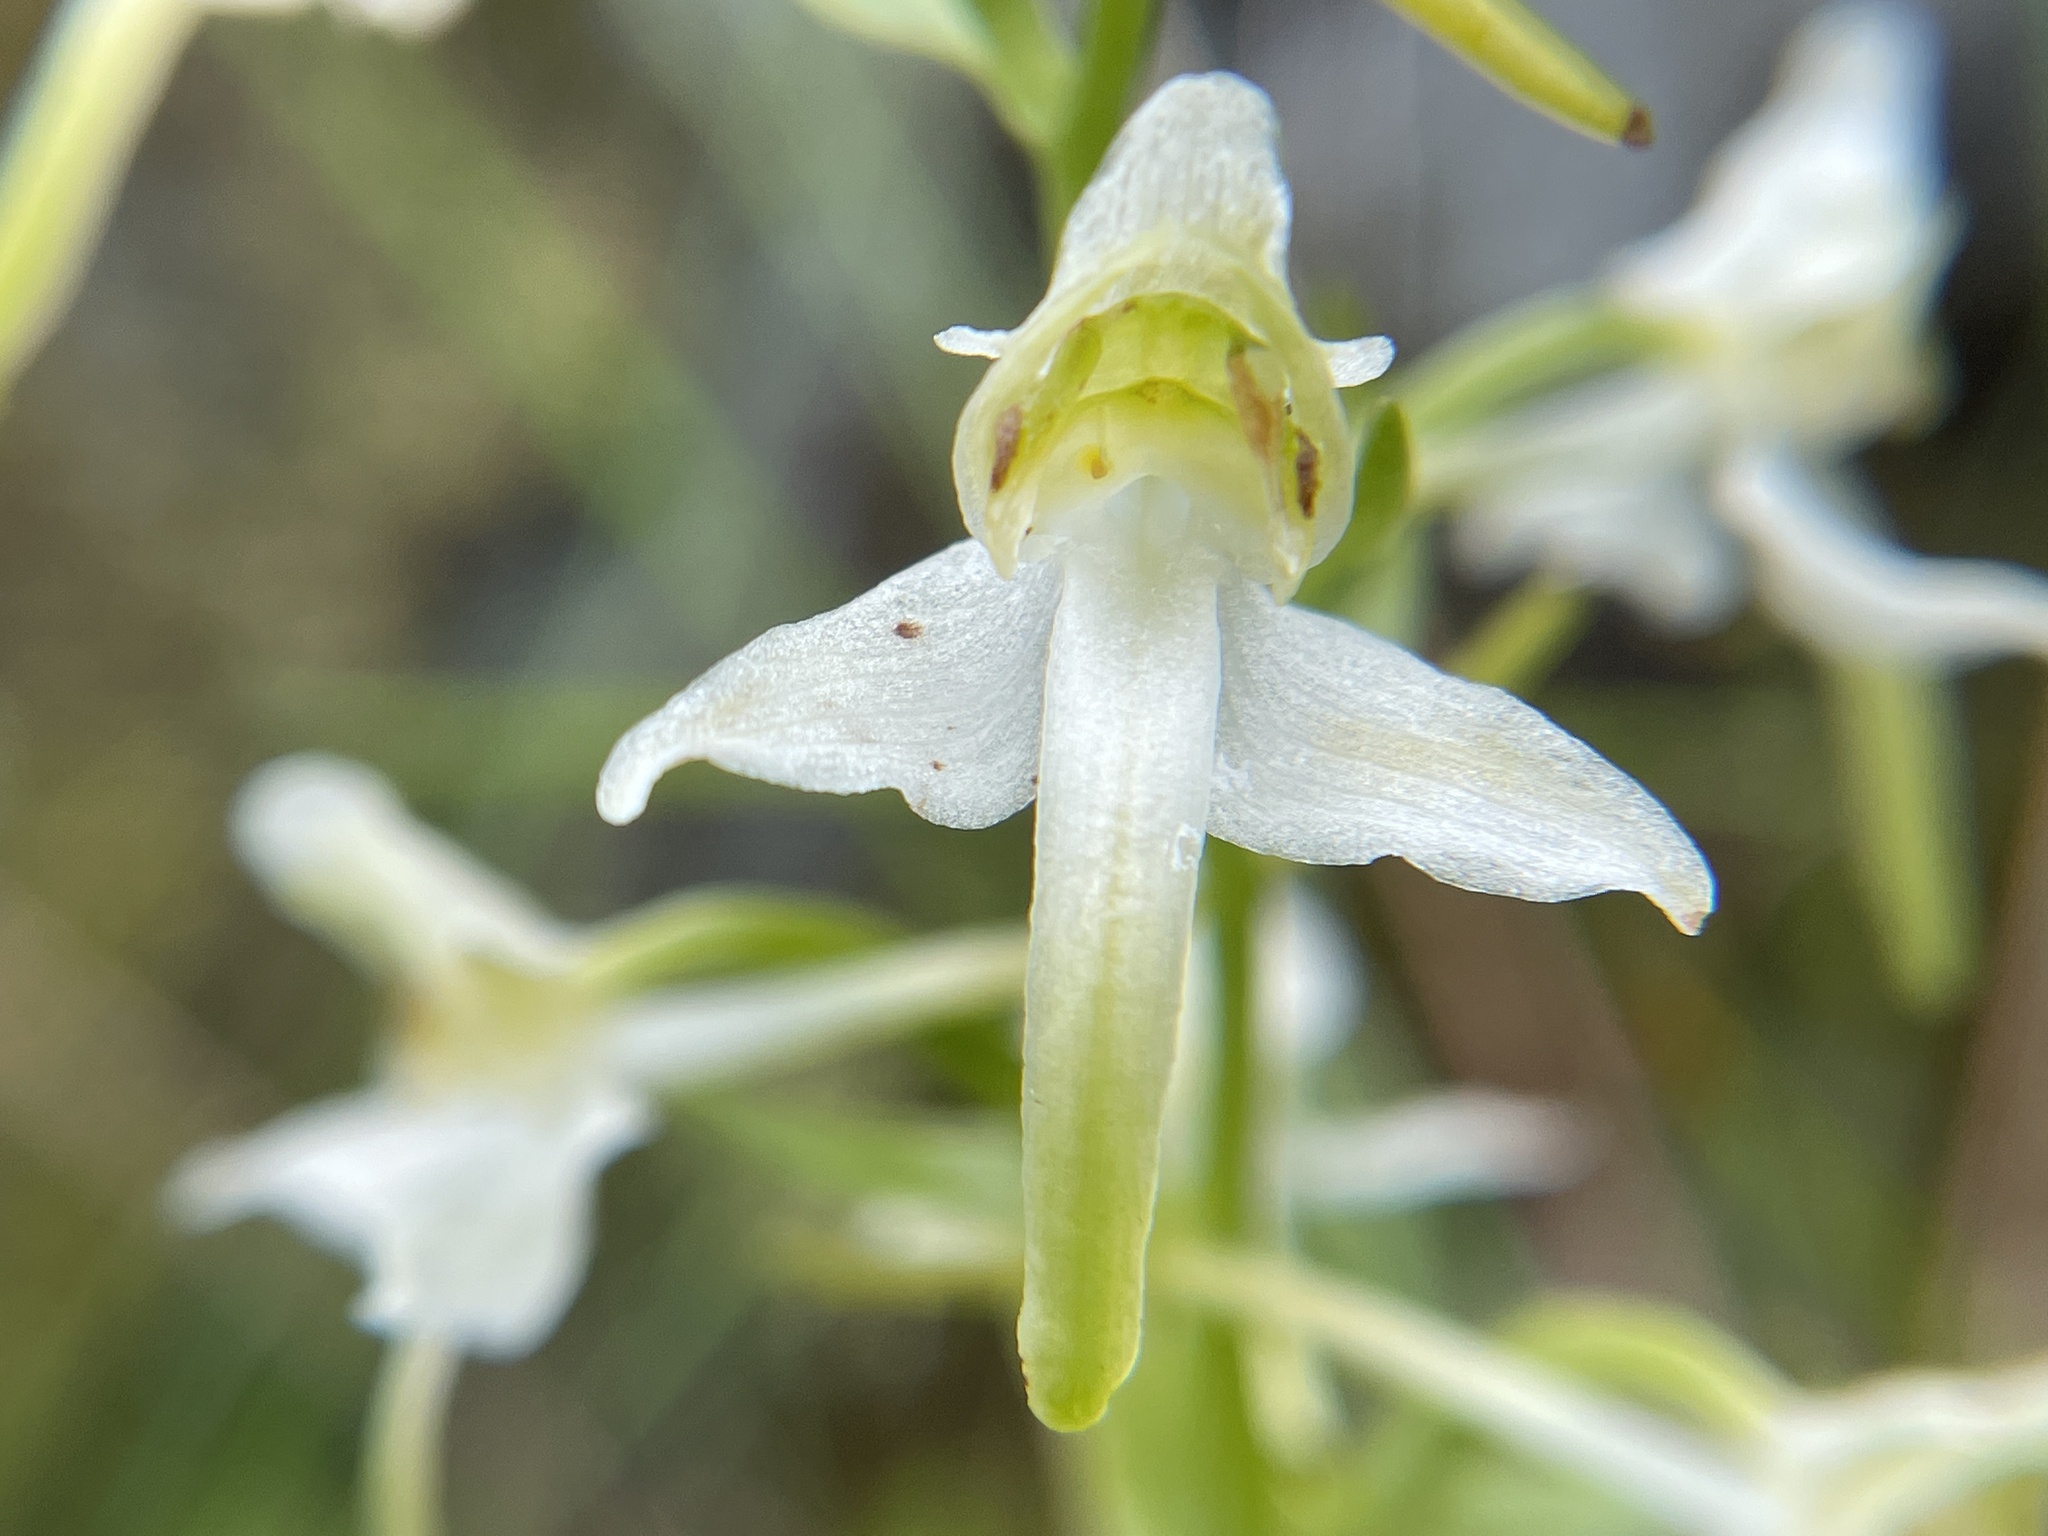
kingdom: Plantae
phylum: Tracheophyta
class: Liliopsida
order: Asparagales
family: Orchidaceae
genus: Platanthera
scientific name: Platanthera chlorantha
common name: Greater butterfly-orchid
